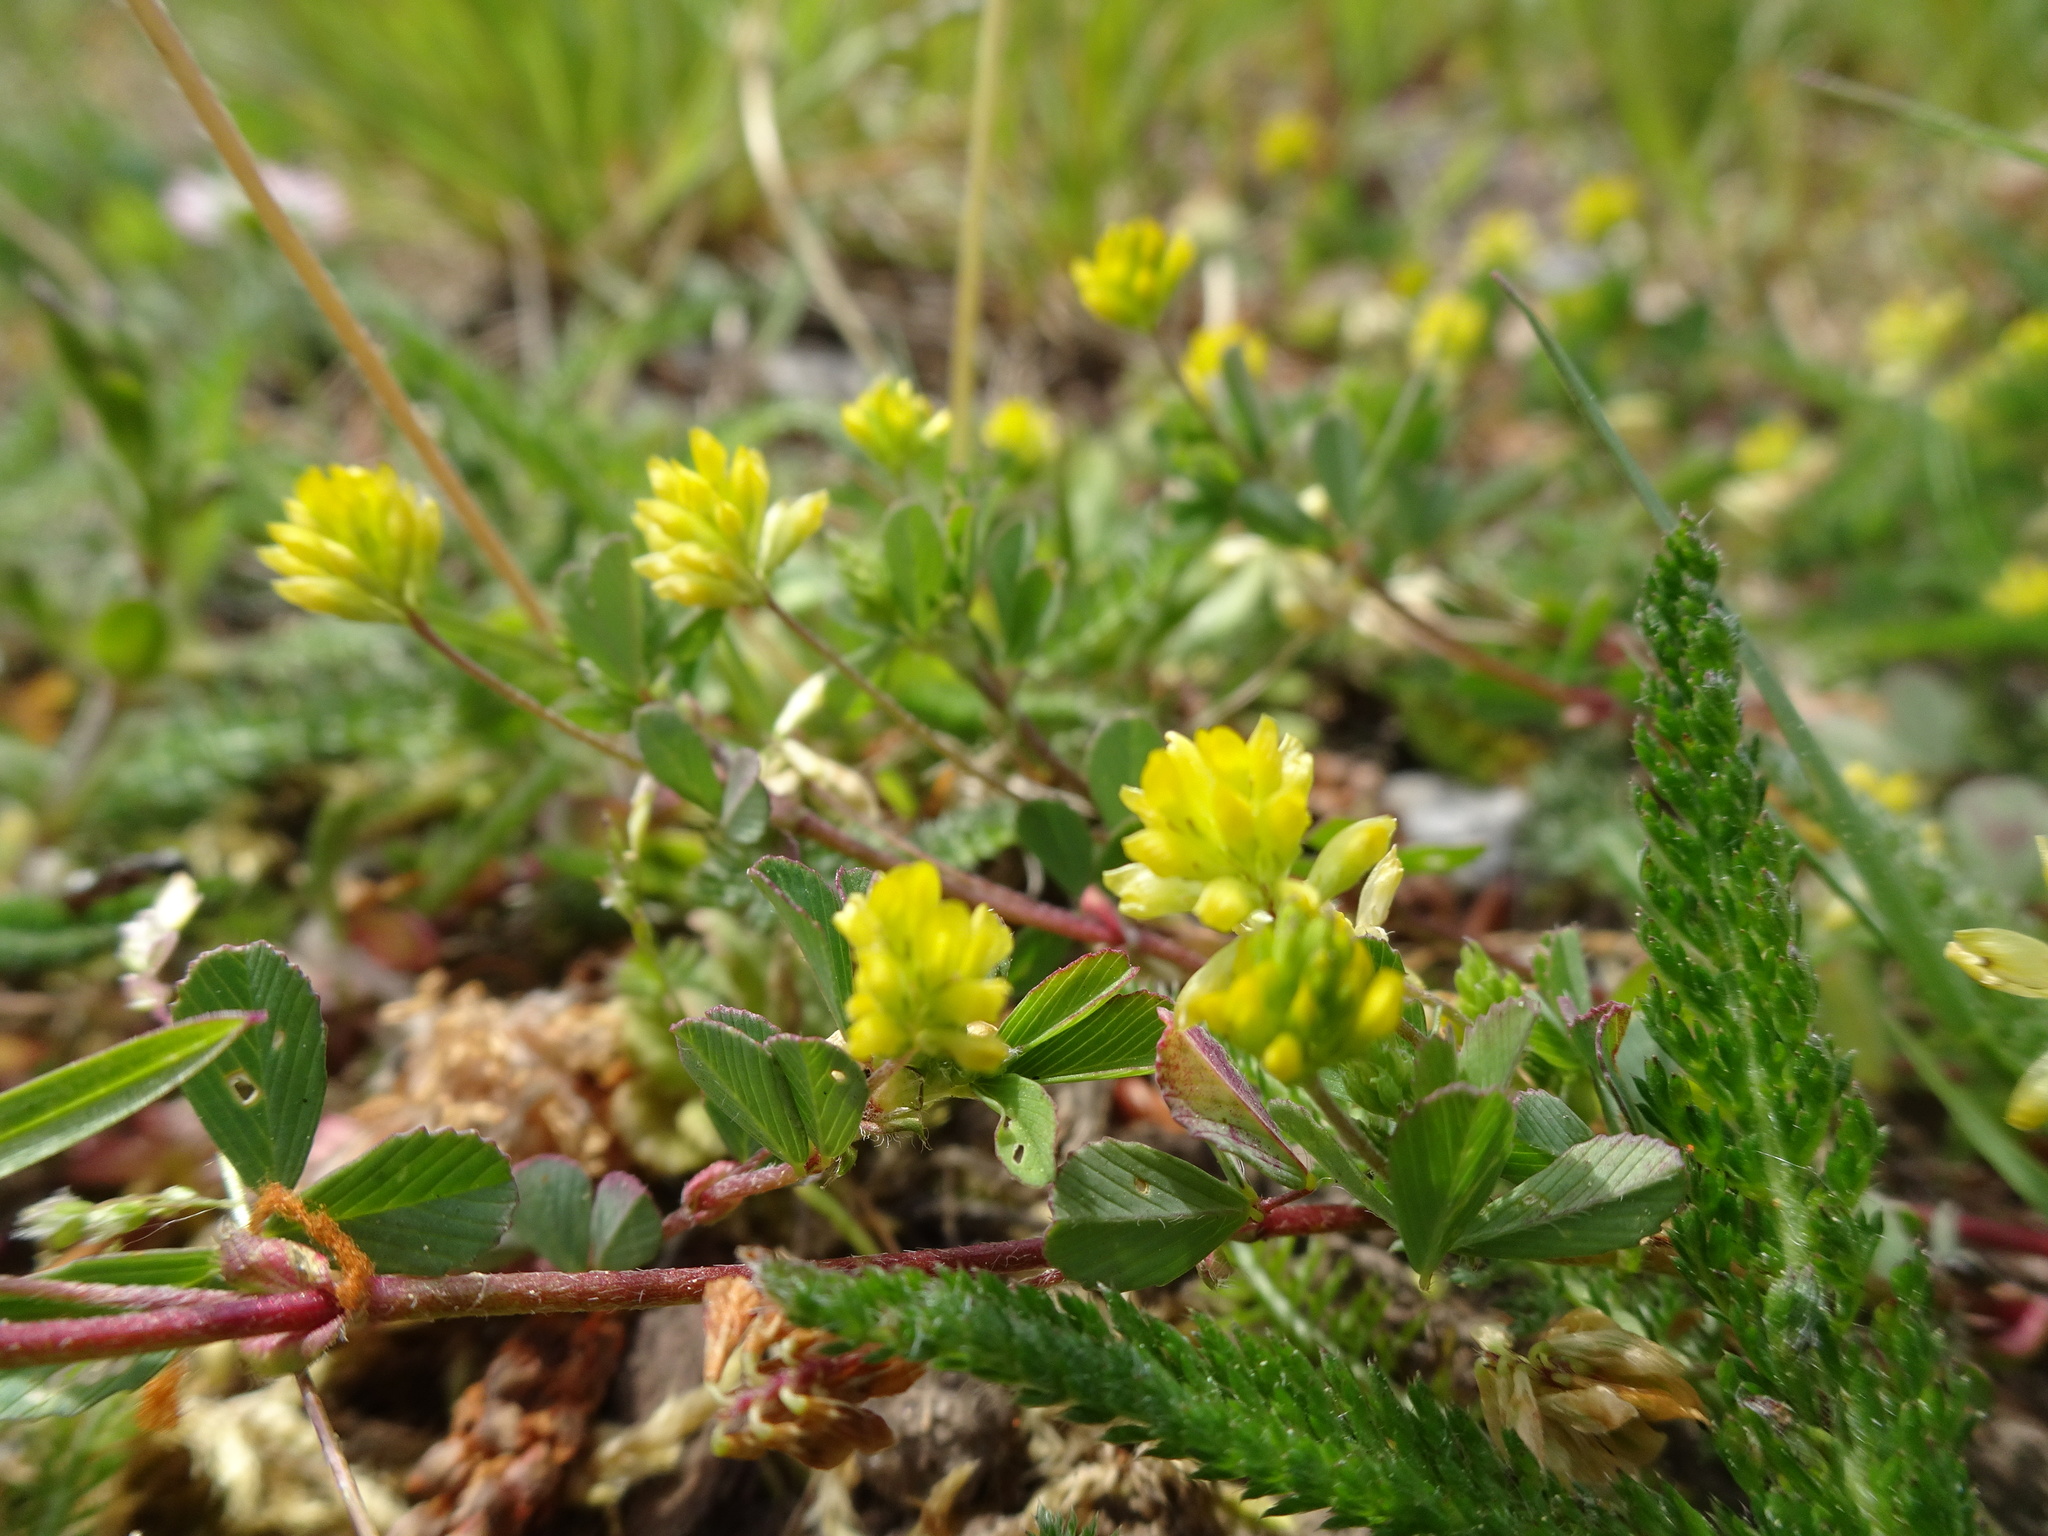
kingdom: Plantae
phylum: Tracheophyta
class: Magnoliopsida
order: Fabales
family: Fabaceae
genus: Trifolium
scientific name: Trifolium dubium
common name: Suckling clover
